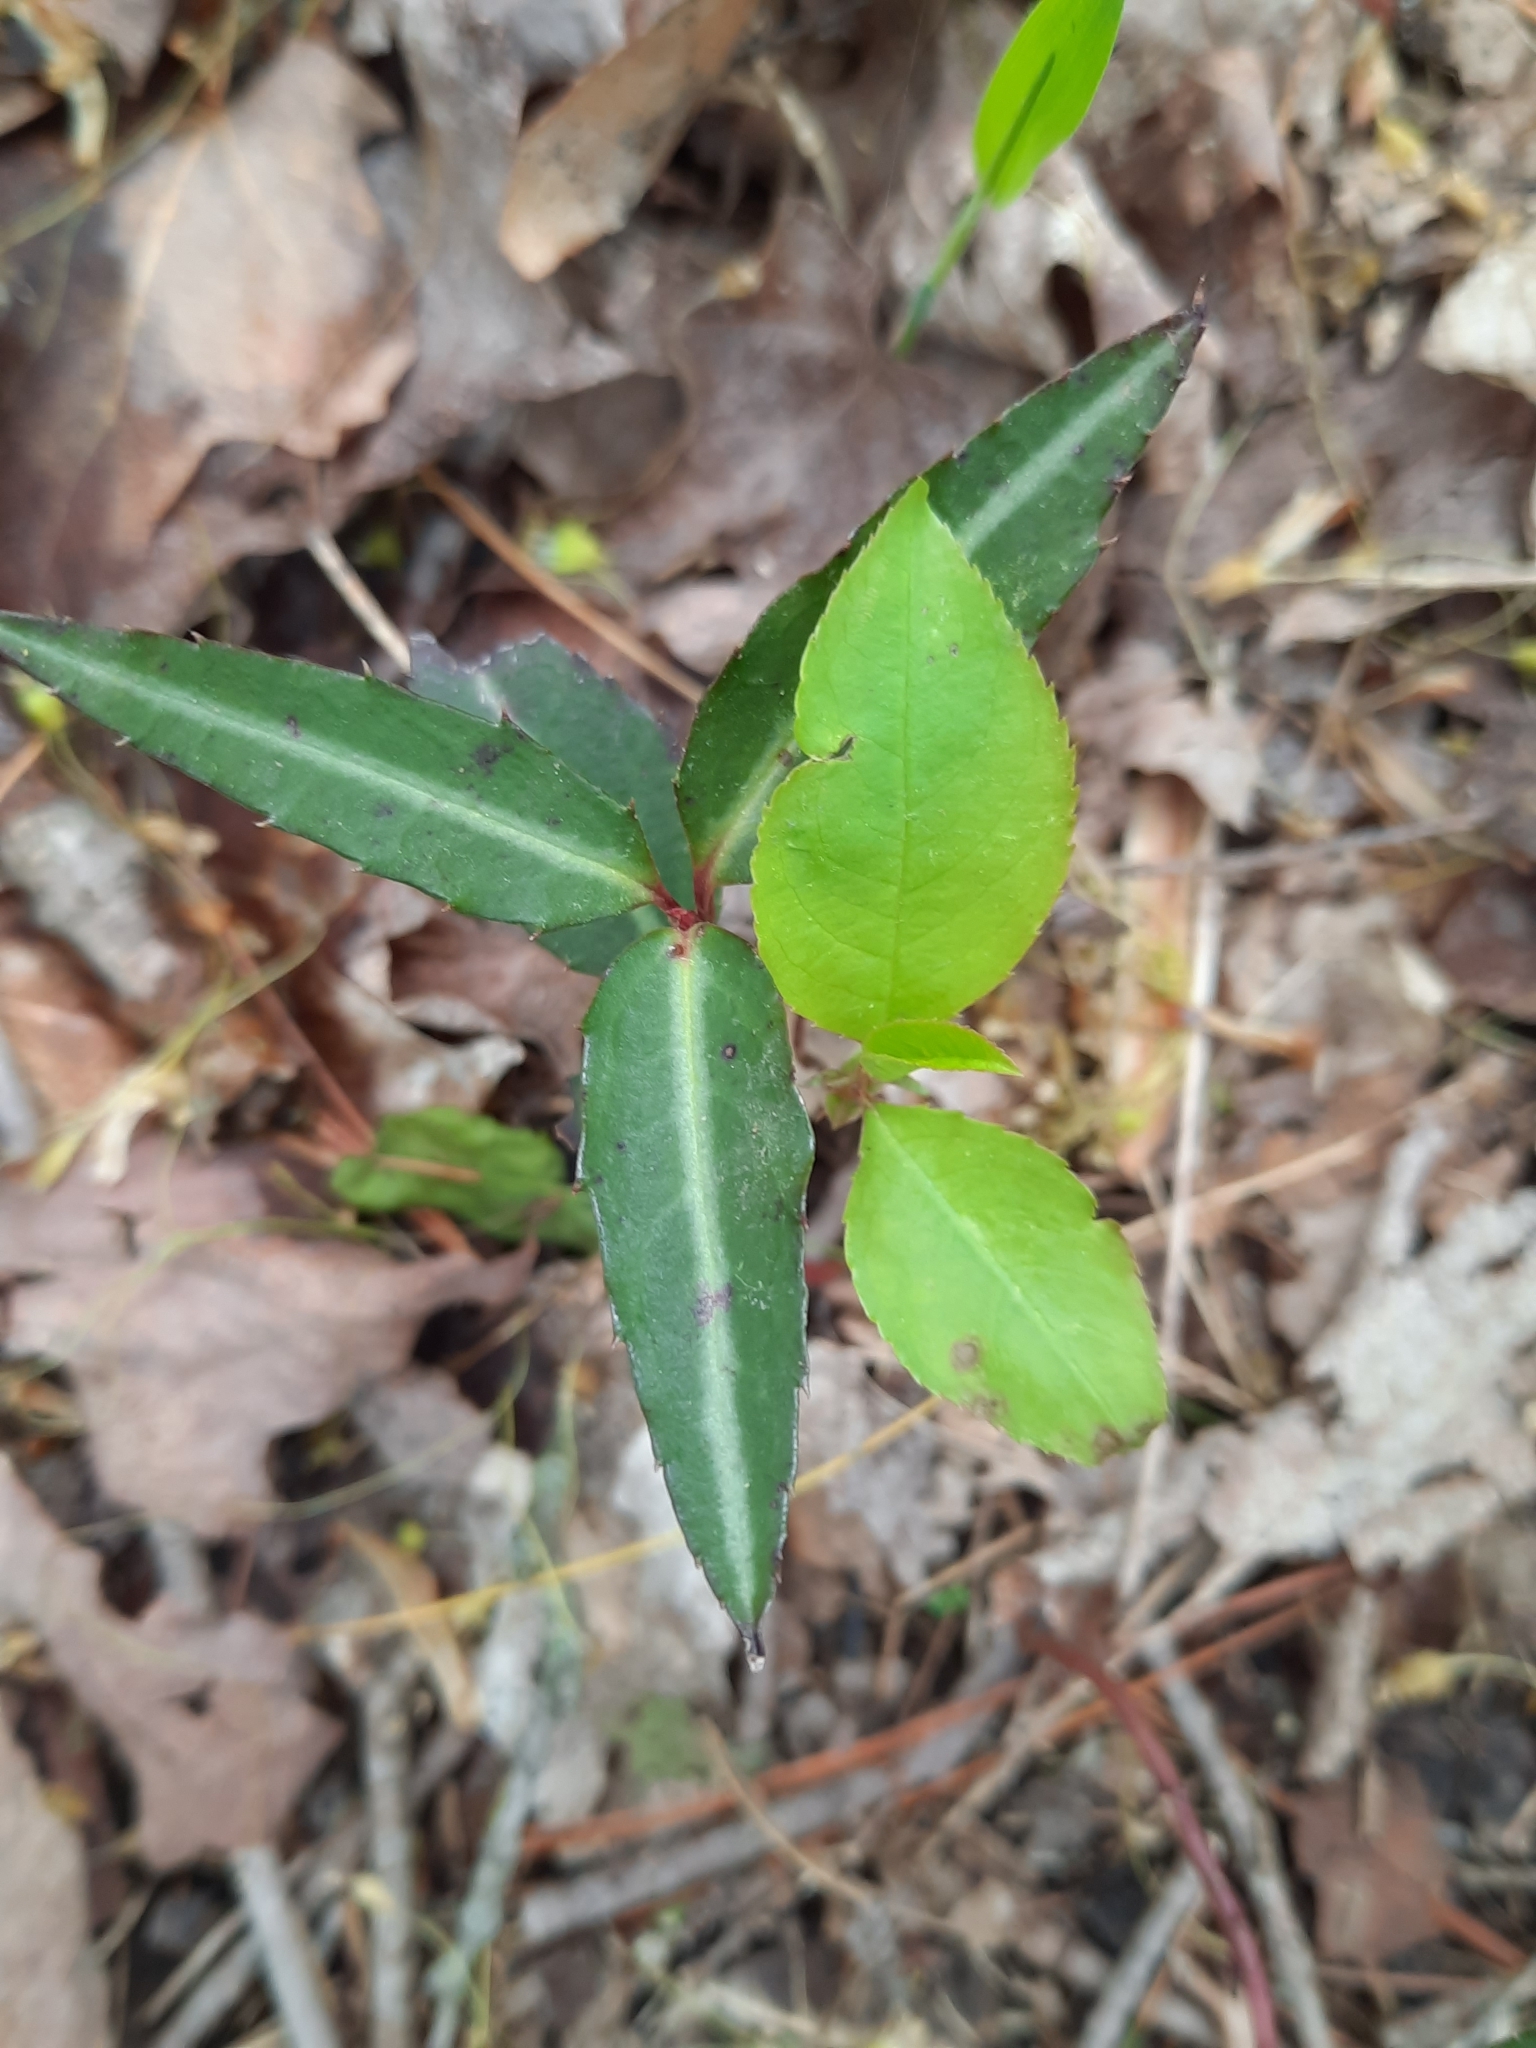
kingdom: Plantae
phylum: Tracheophyta
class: Magnoliopsida
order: Ericales
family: Ericaceae
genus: Chimaphila
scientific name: Chimaphila maculata
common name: Spotted pipsissewa
